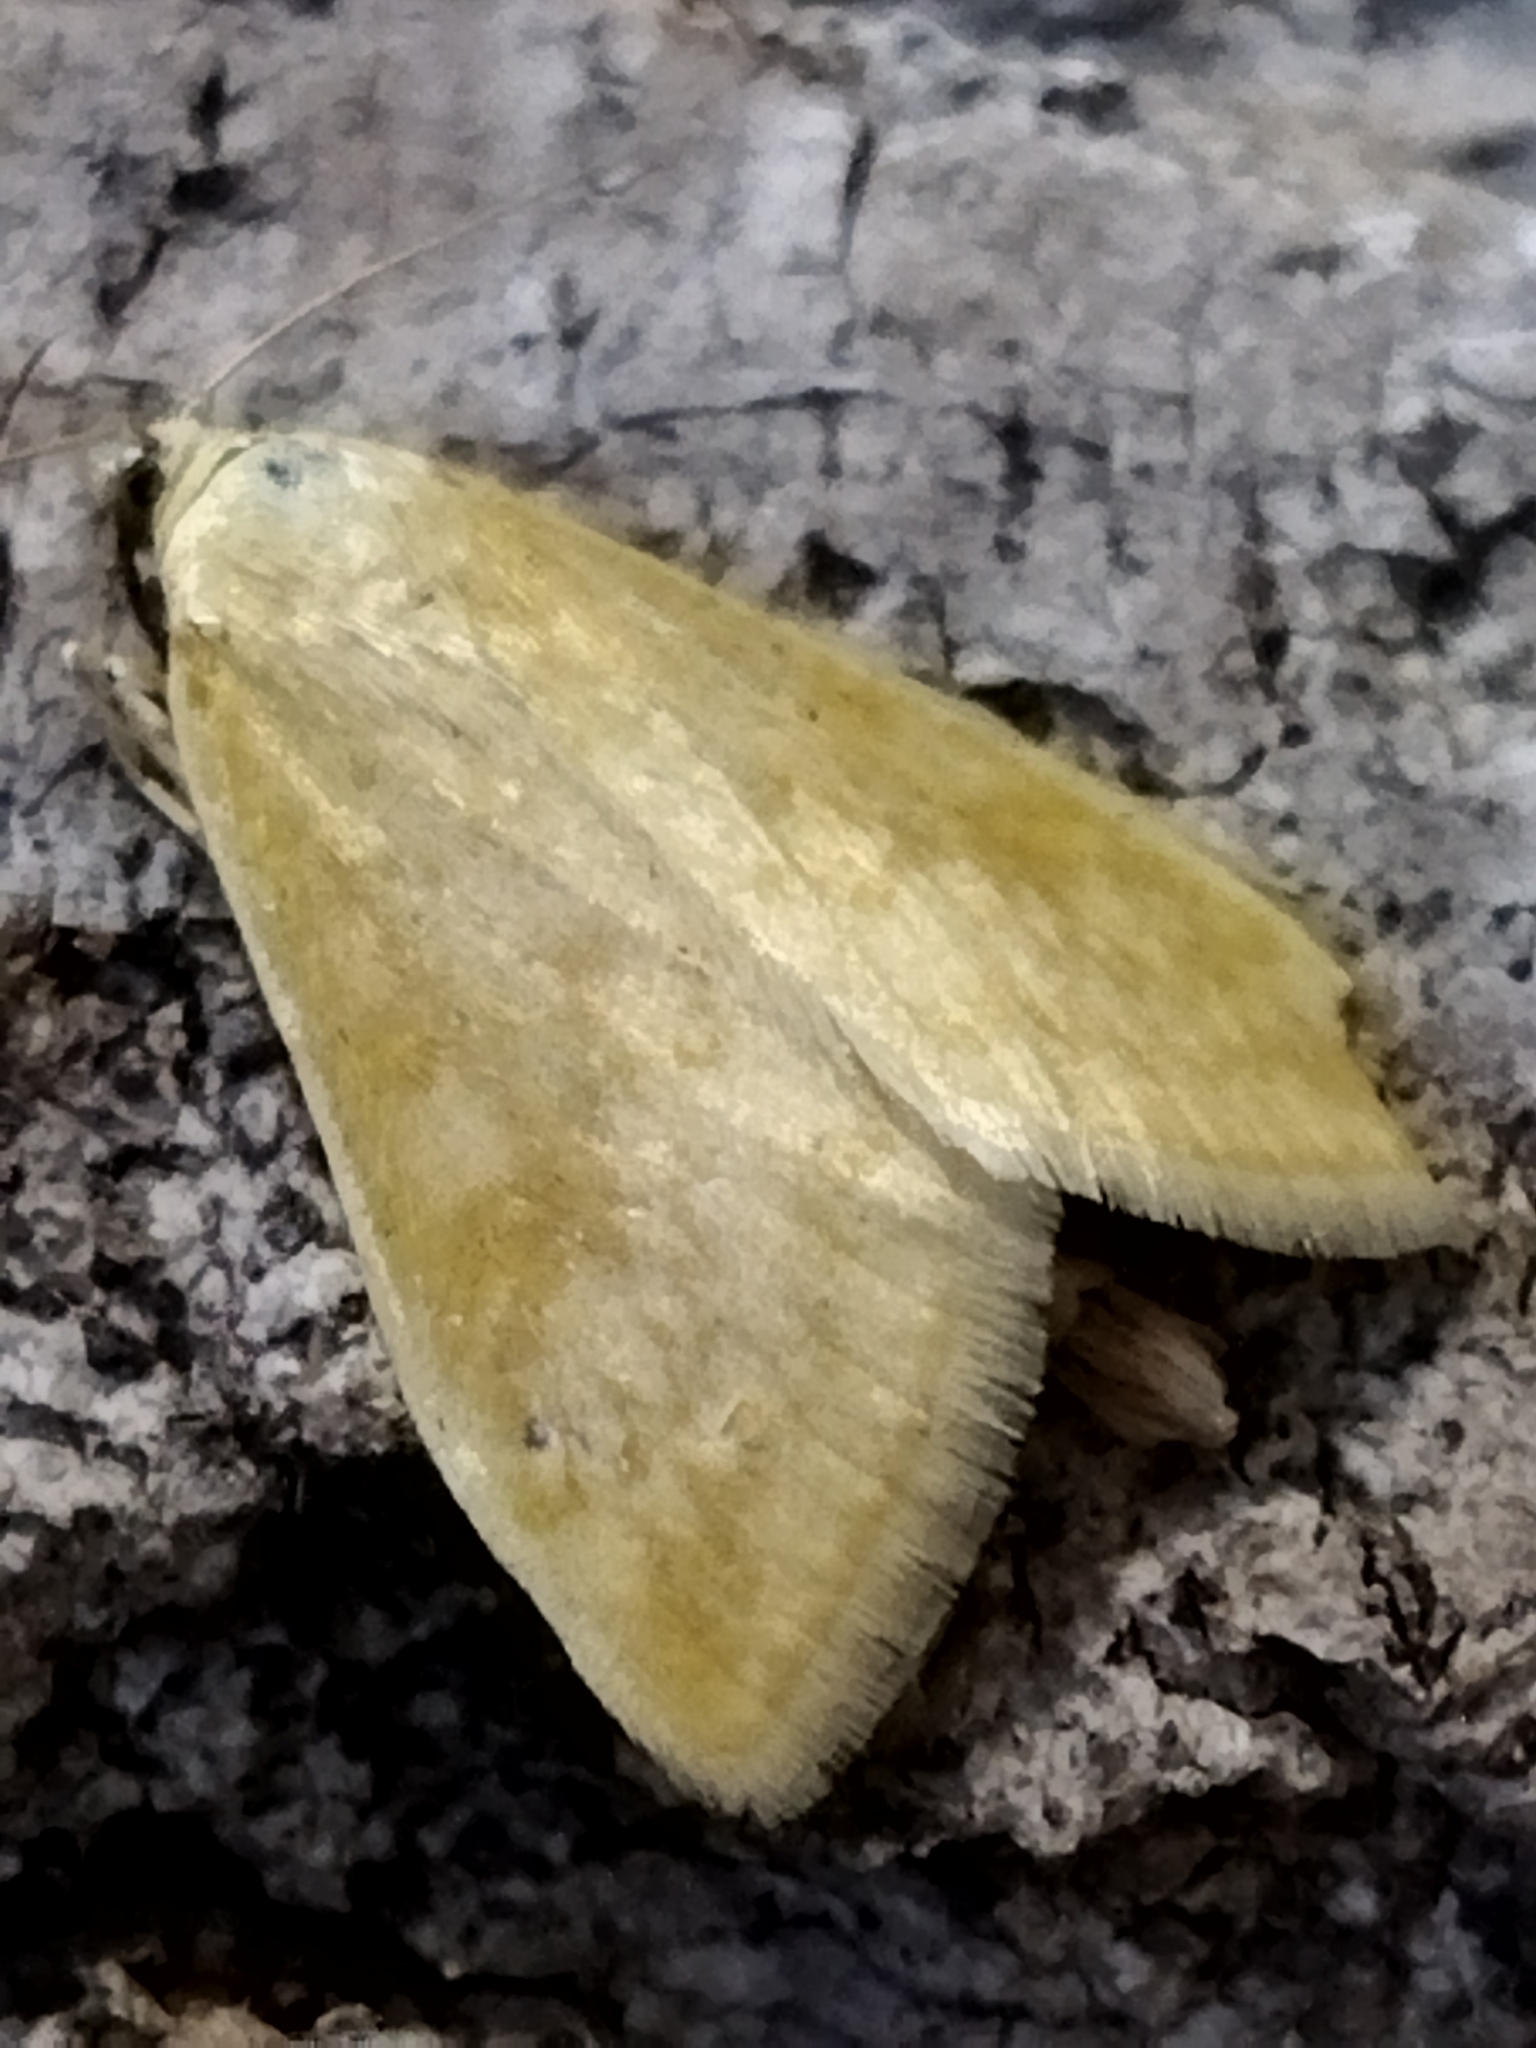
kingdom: Animalia
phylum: Arthropoda
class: Insecta
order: Lepidoptera
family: Crambidae
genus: Sitochroa
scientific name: Sitochroa verticalis
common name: Lesser pearl
